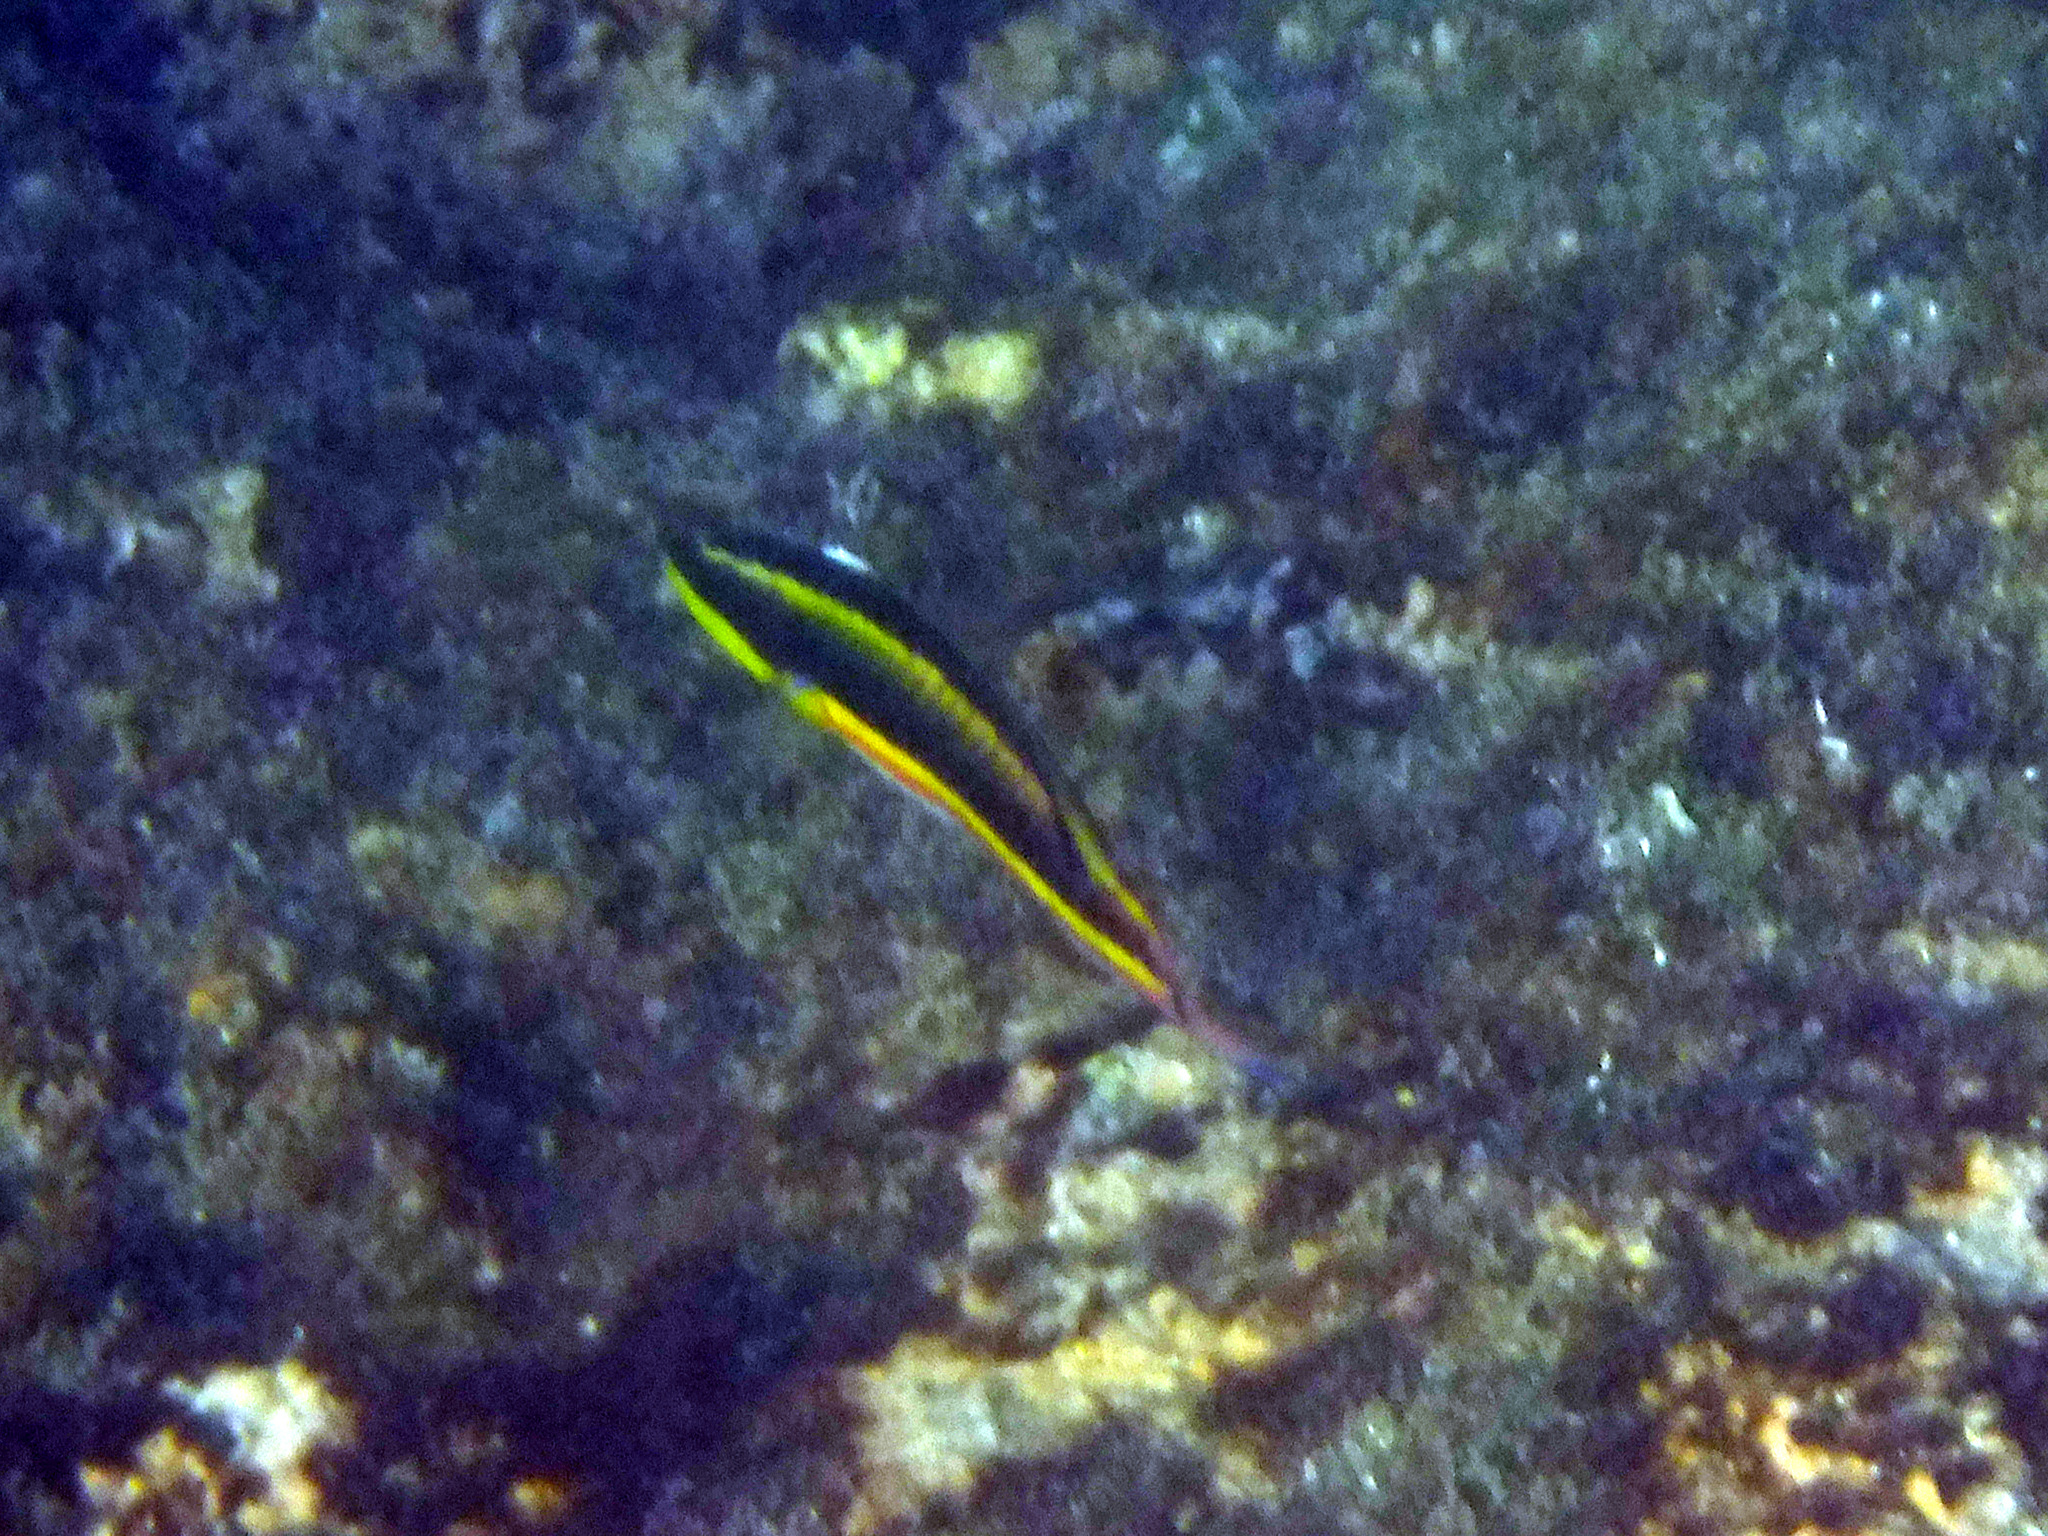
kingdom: Animalia
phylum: Chordata
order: Perciformes
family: Labridae
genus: Thalassoma
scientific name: Thalassoma lucasanum
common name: Cortez rainbow wrasse
